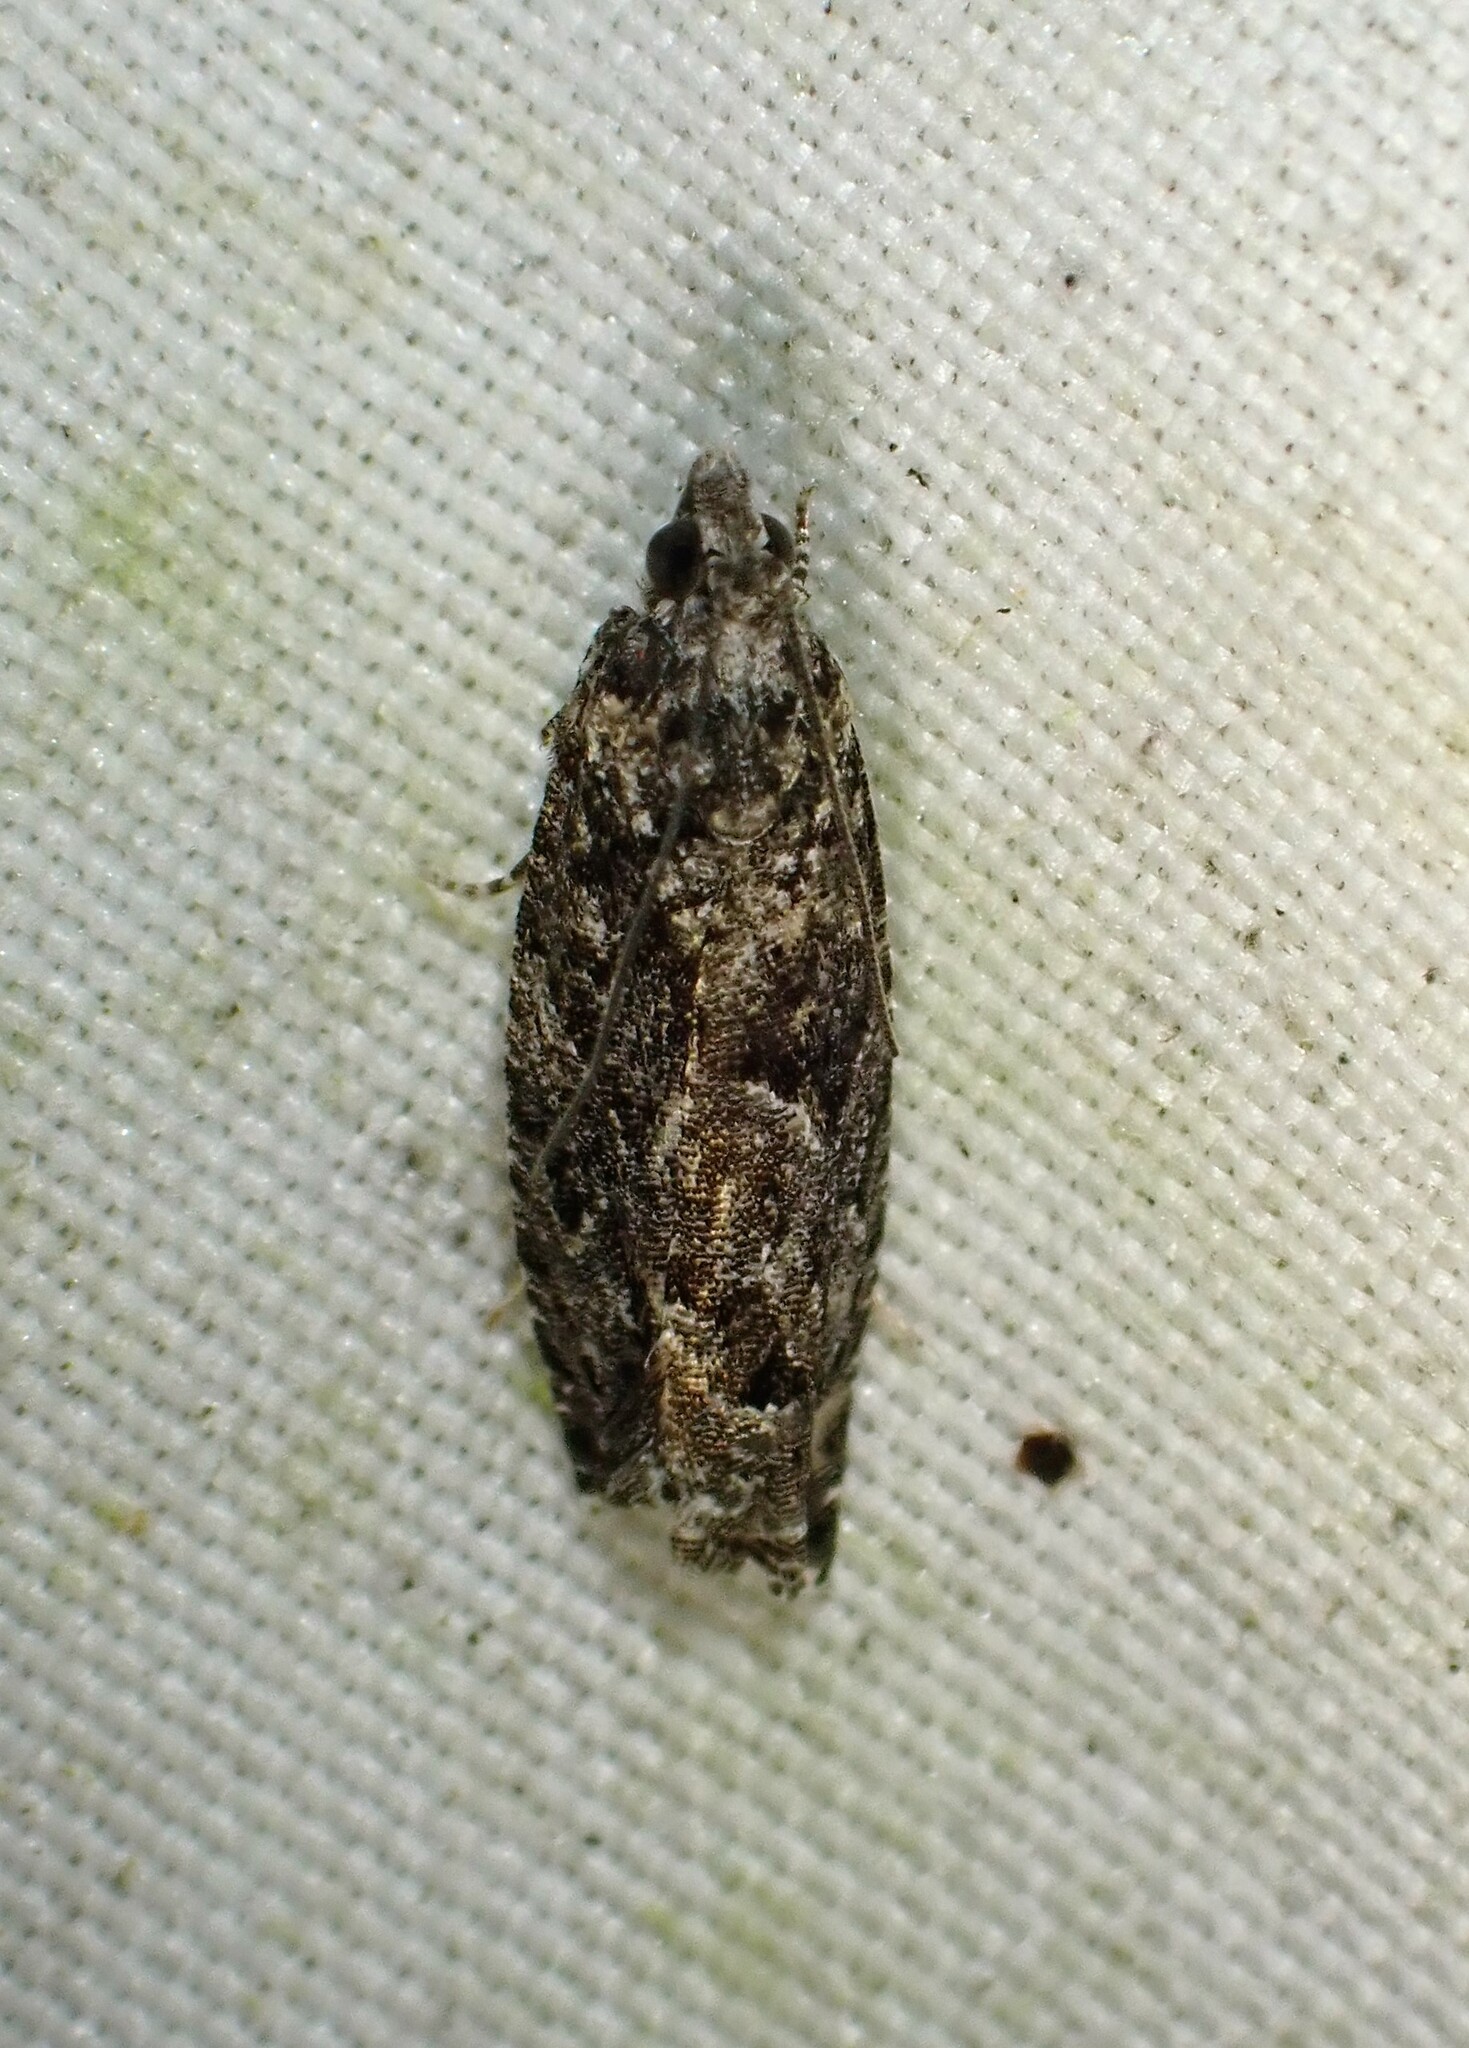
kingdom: Animalia
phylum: Arthropoda
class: Insecta
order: Lepidoptera
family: Tortricidae
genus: Epinotia
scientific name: Epinotia nisella
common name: Grey poplar bell
